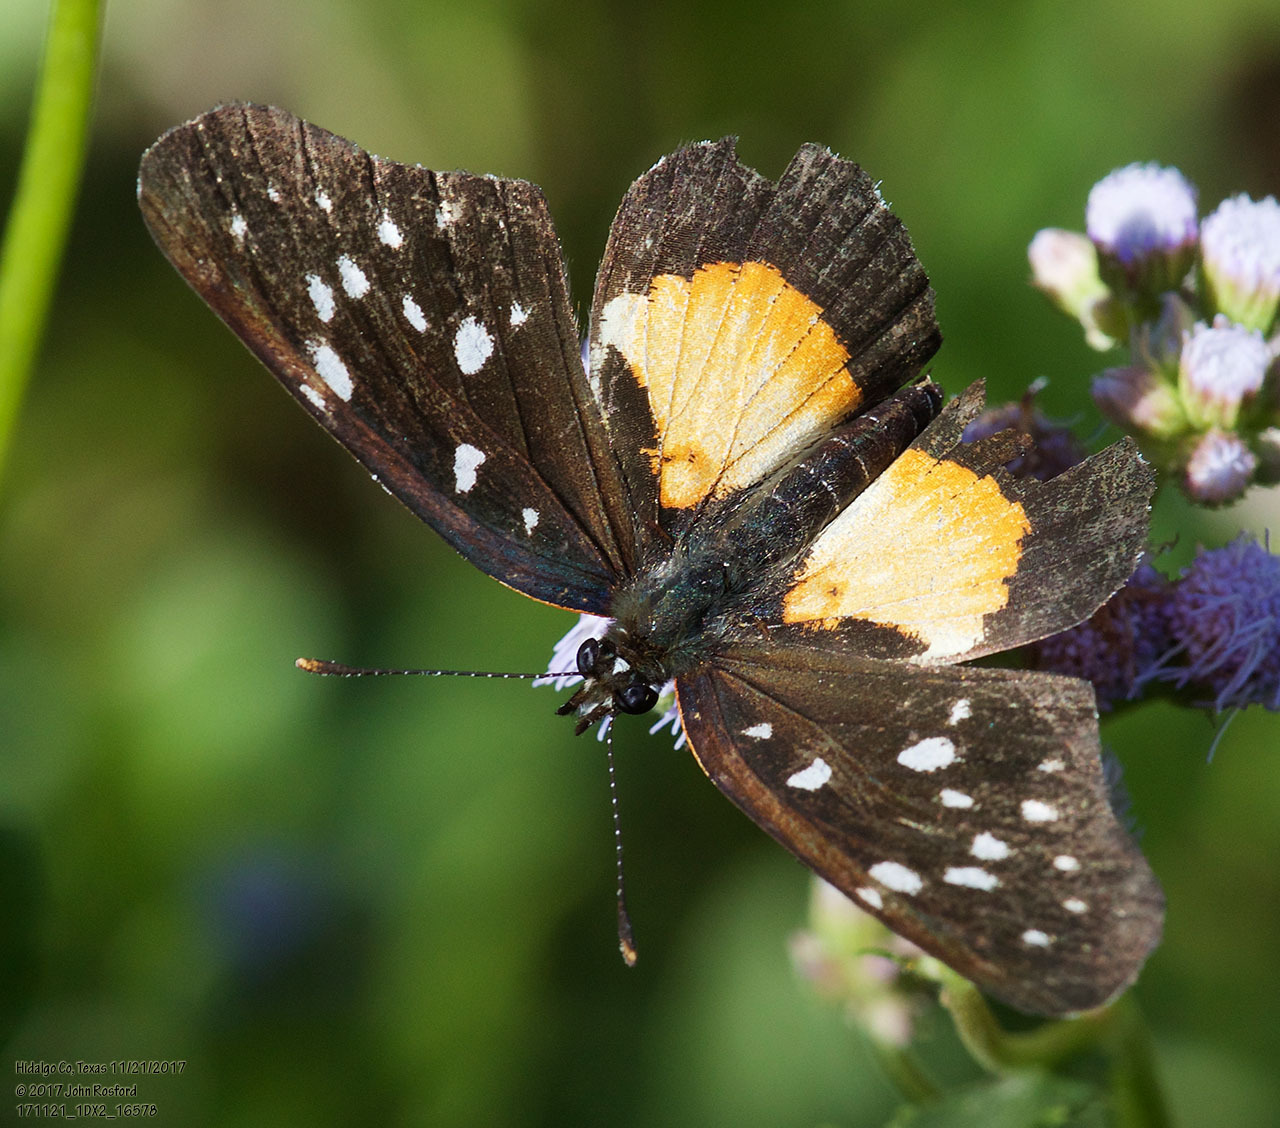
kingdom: Animalia
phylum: Arthropoda
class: Insecta
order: Lepidoptera
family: Nymphalidae
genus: Chlosyne
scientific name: Chlosyne rosita
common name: Rosita patch
